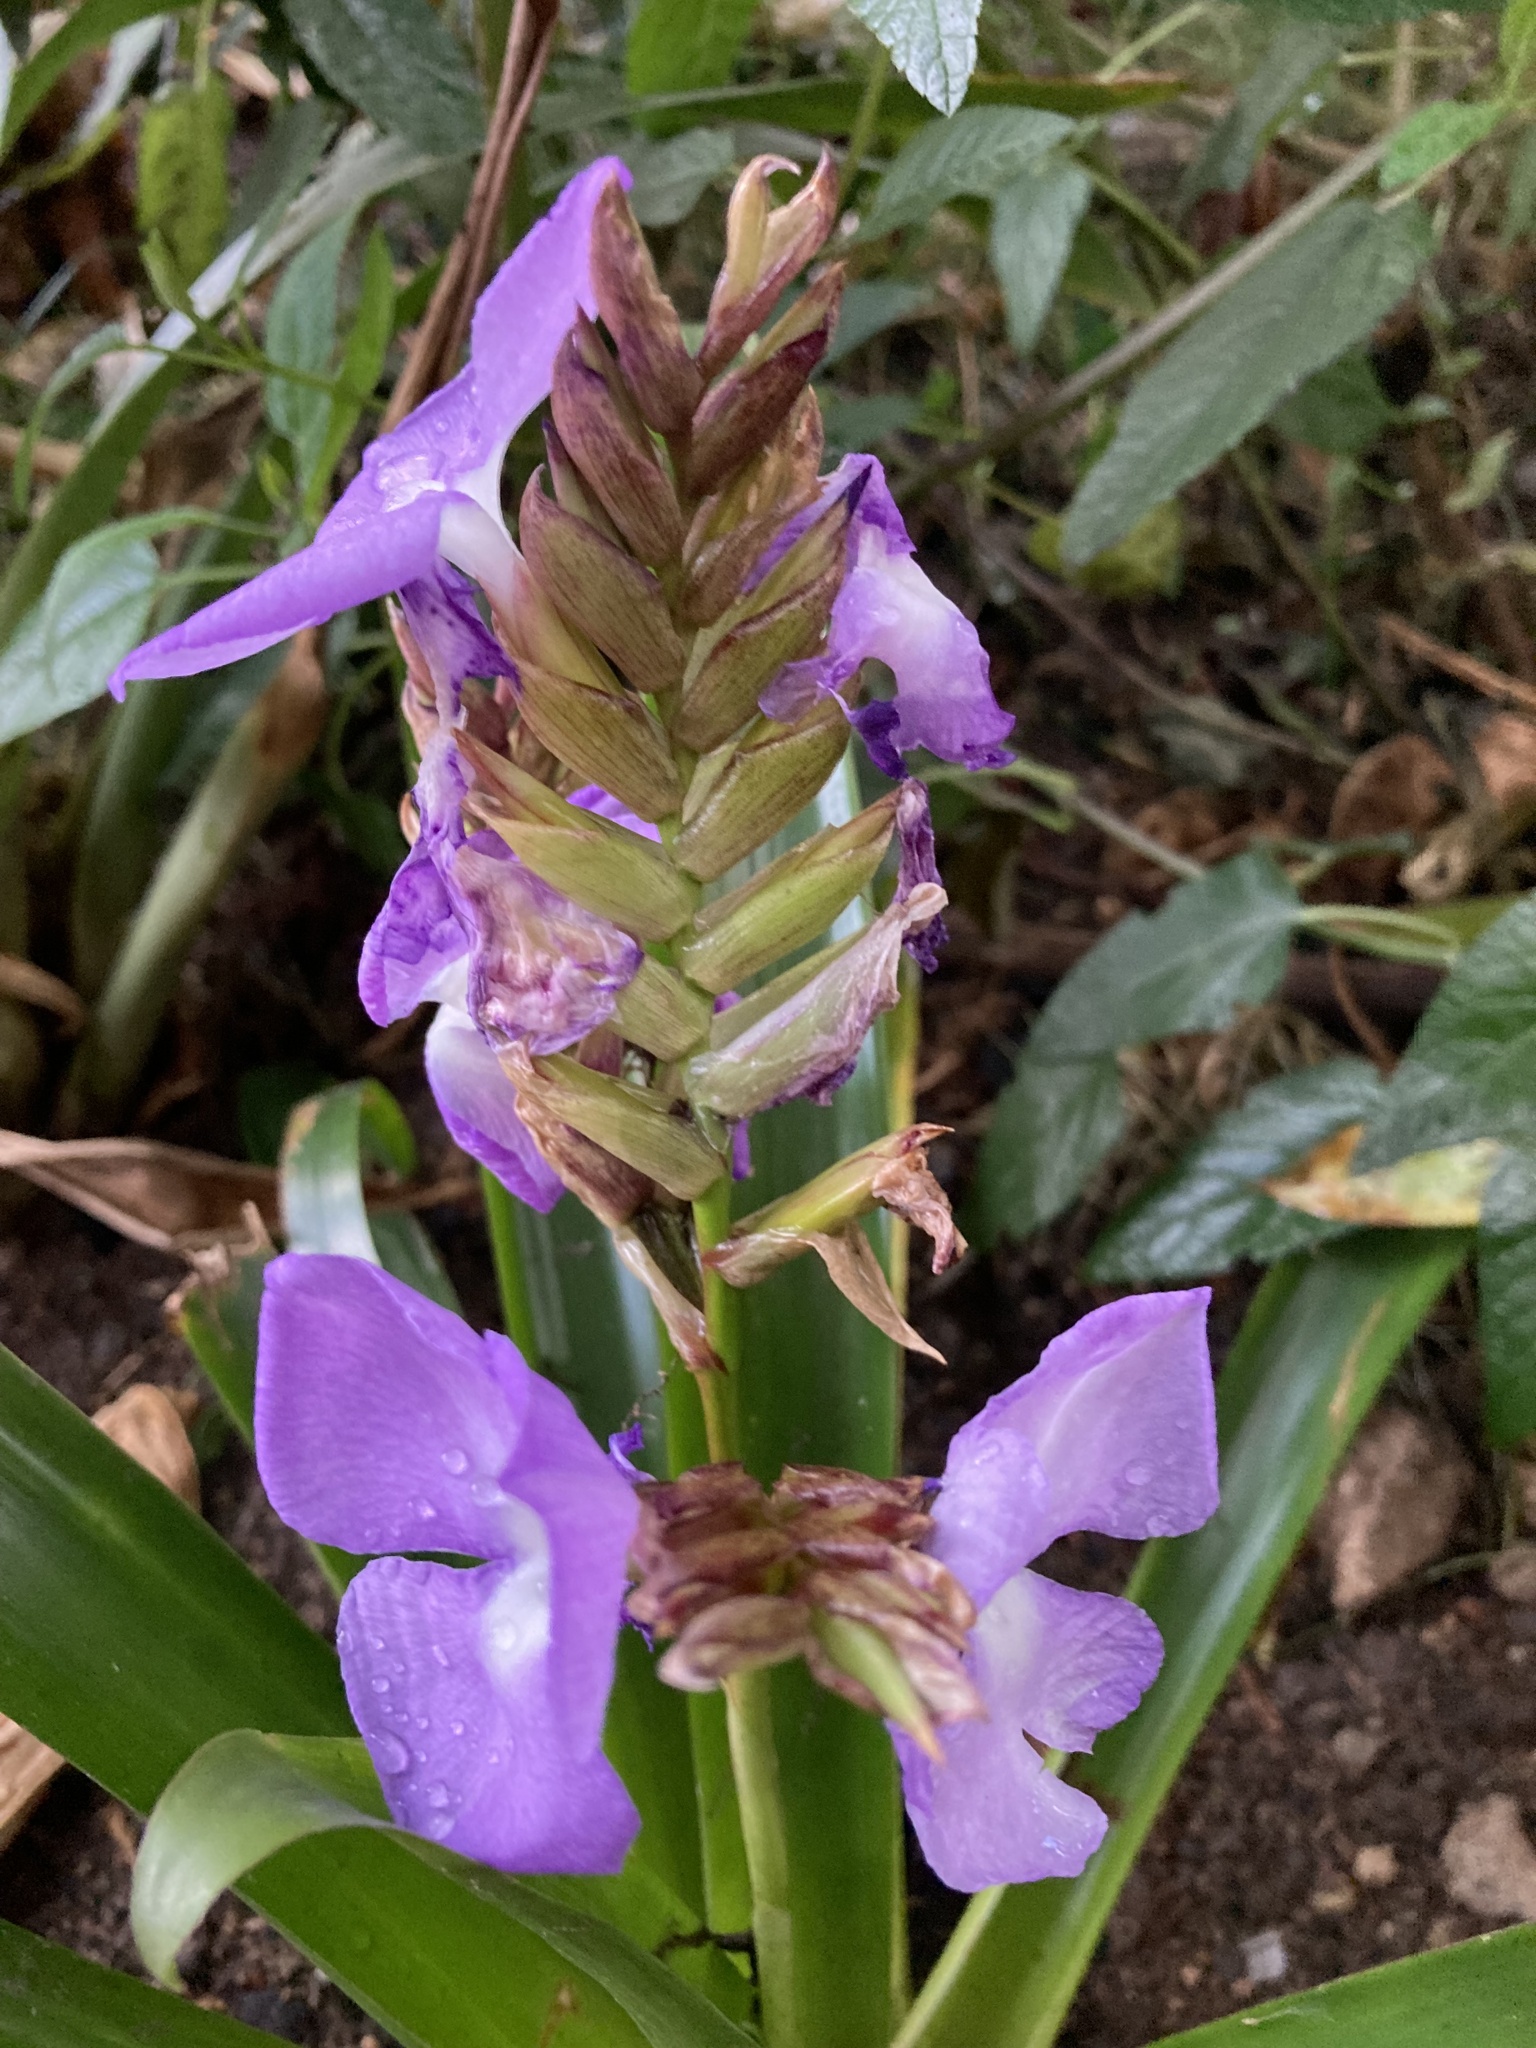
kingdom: Plantae
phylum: Tracheophyta
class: Liliopsida
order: Poales
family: Bromeliaceae
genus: Racinaea
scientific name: Racinaea hamaleana
